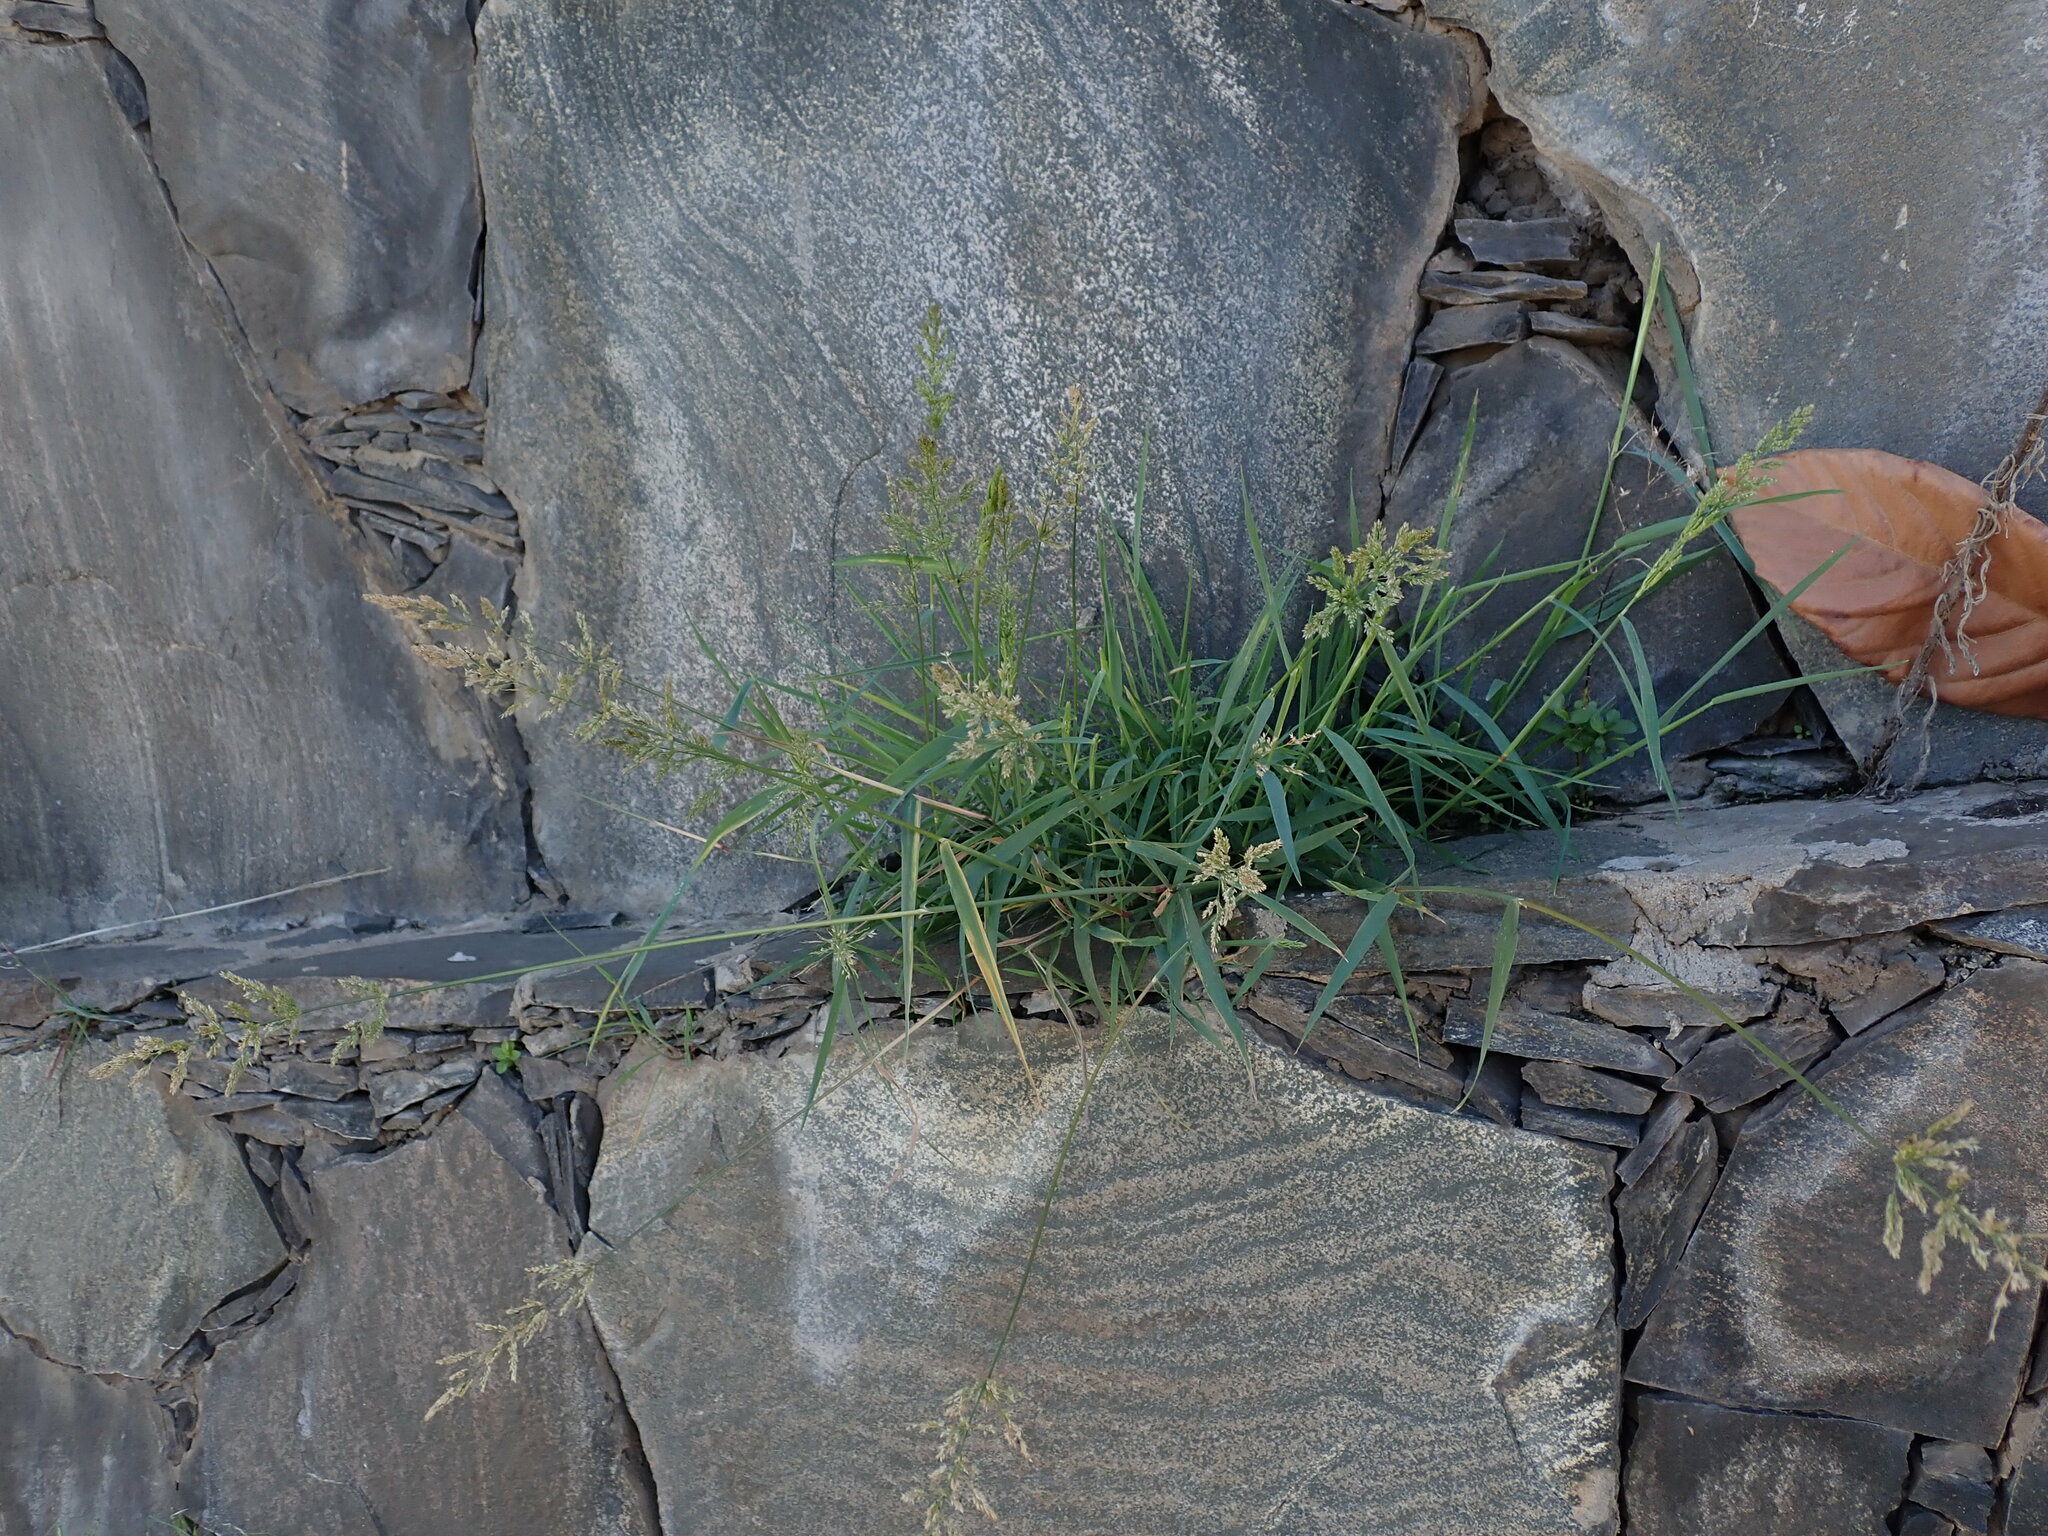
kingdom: Plantae
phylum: Tracheophyta
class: Liliopsida
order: Poales
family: Poaceae
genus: Polypogon
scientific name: Polypogon viridis
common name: Water bent
